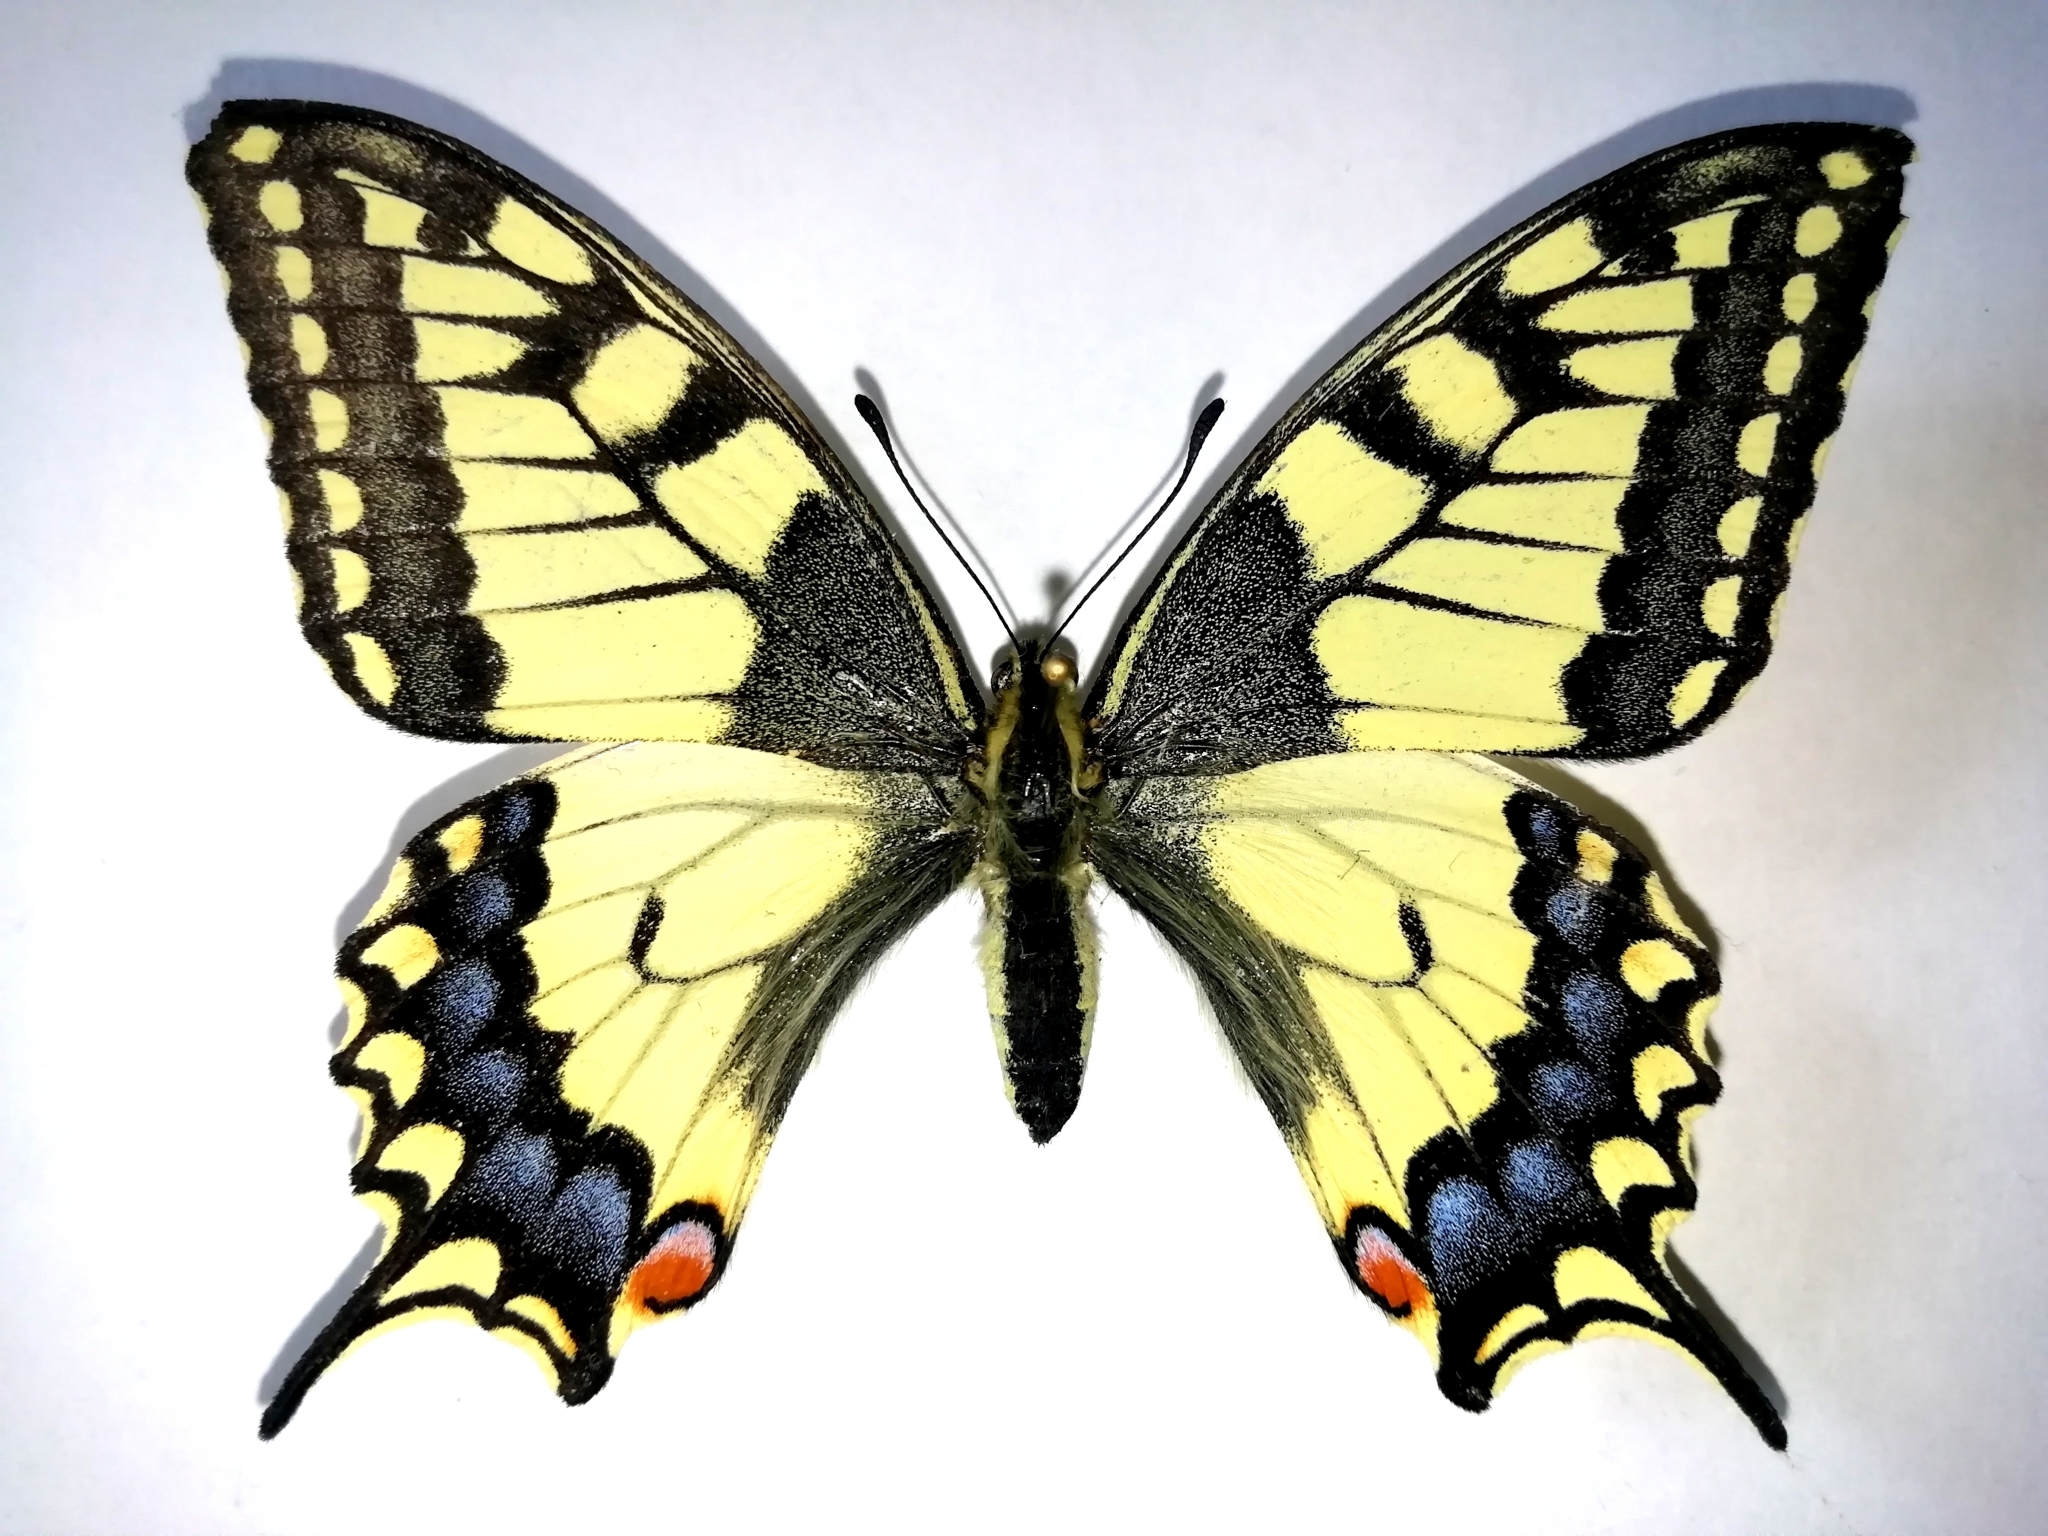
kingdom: Animalia
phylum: Arthropoda
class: Insecta
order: Lepidoptera
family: Papilionidae
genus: Papilio
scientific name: Papilio machaon
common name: Swallowtail
